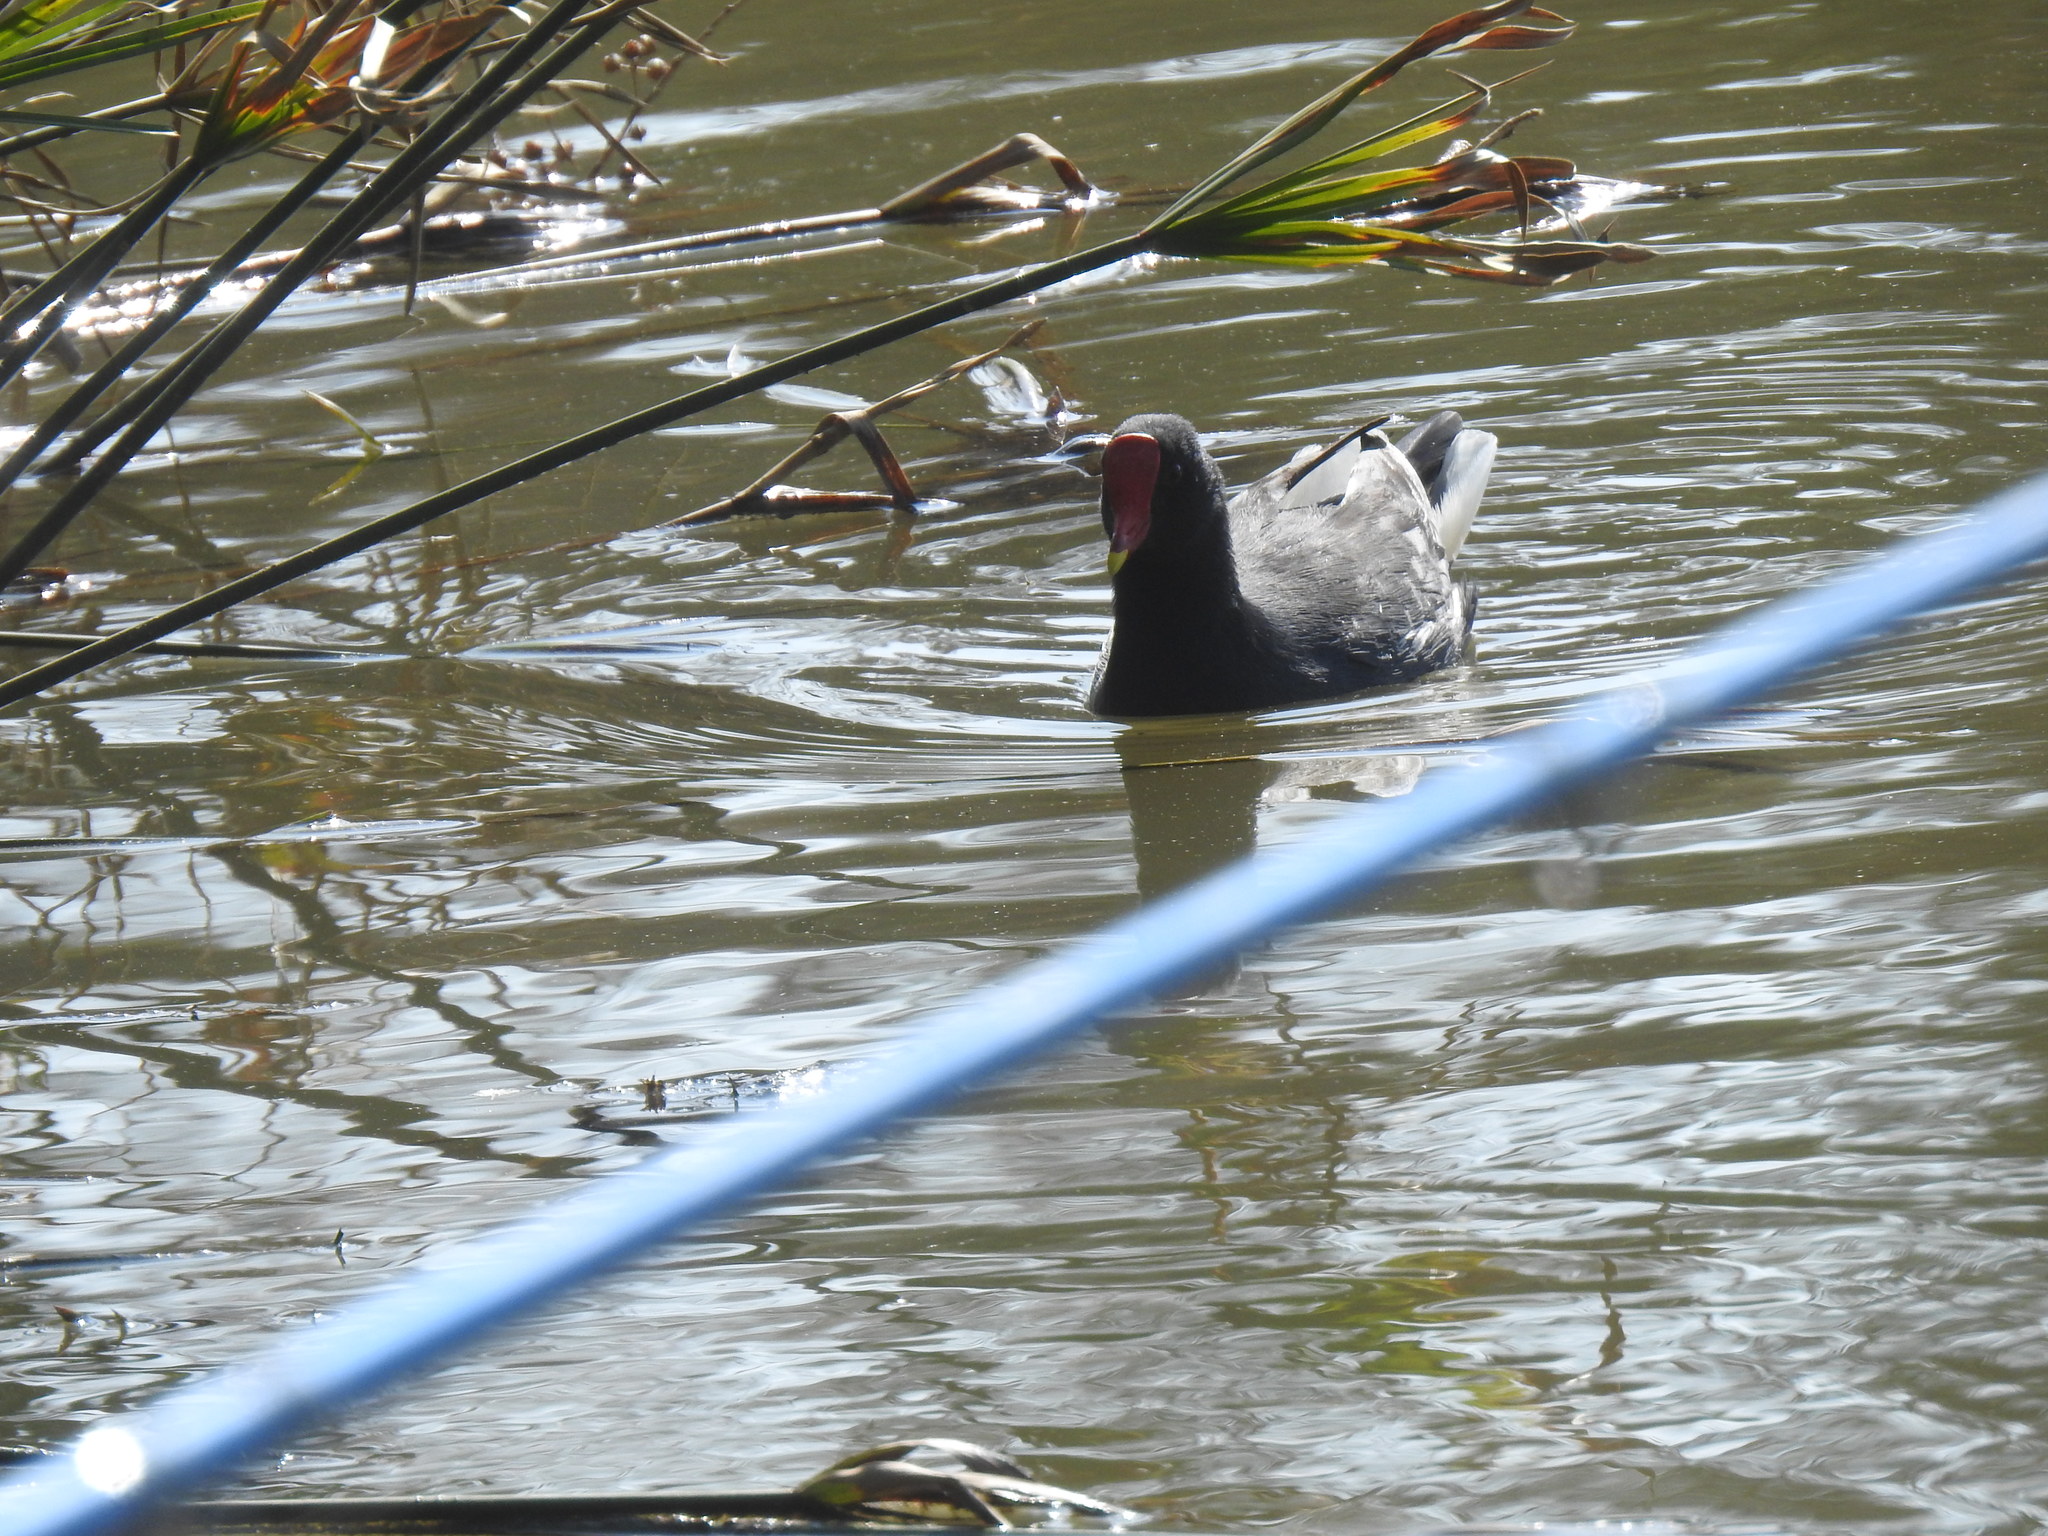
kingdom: Animalia
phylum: Chordata
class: Aves
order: Gruiformes
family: Rallidae
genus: Gallinula
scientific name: Gallinula chloropus
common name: Common moorhen
